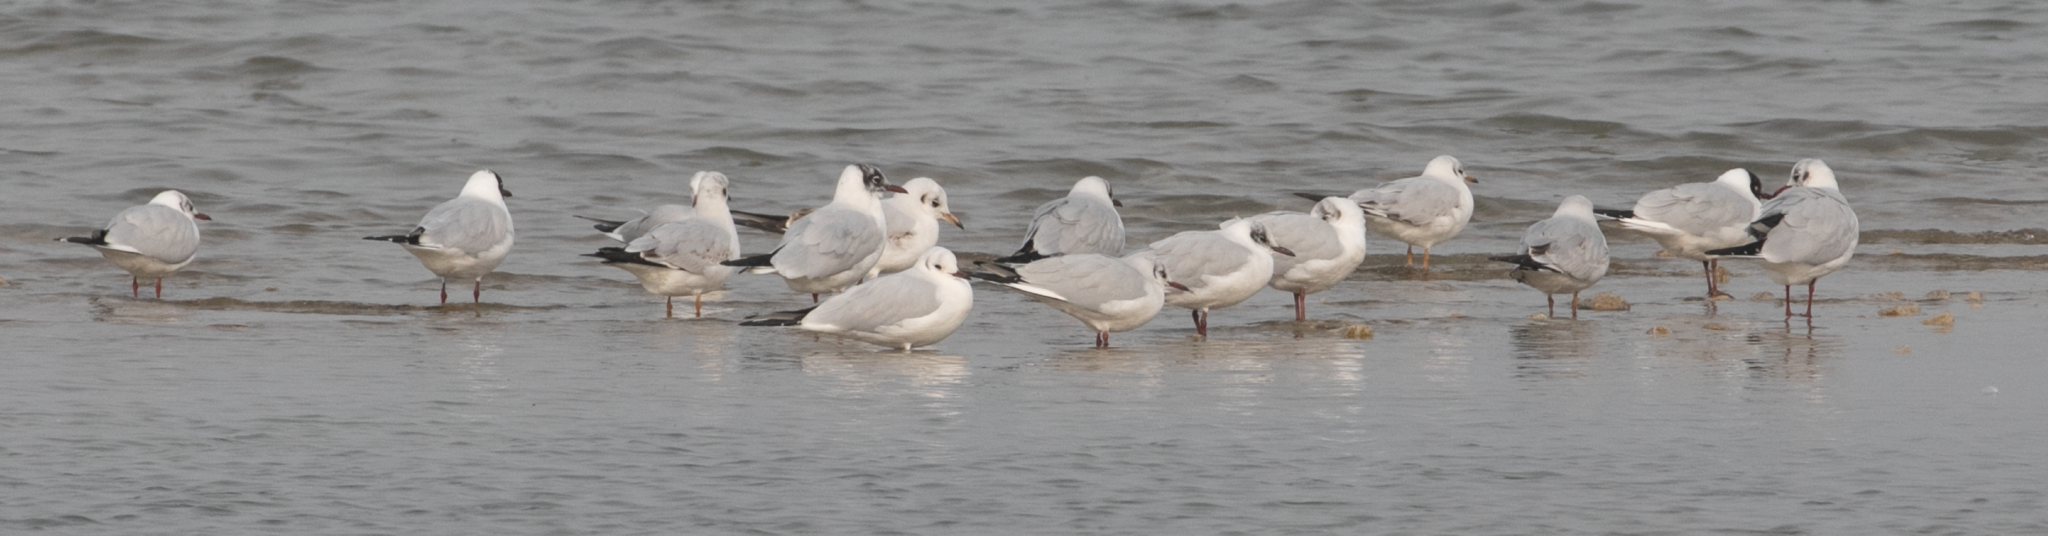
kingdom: Animalia
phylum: Chordata
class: Aves
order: Charadriiformes
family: Laridae
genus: Chroicocephalus
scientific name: Chroicocephalus ridibundus
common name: Black-headed gull
